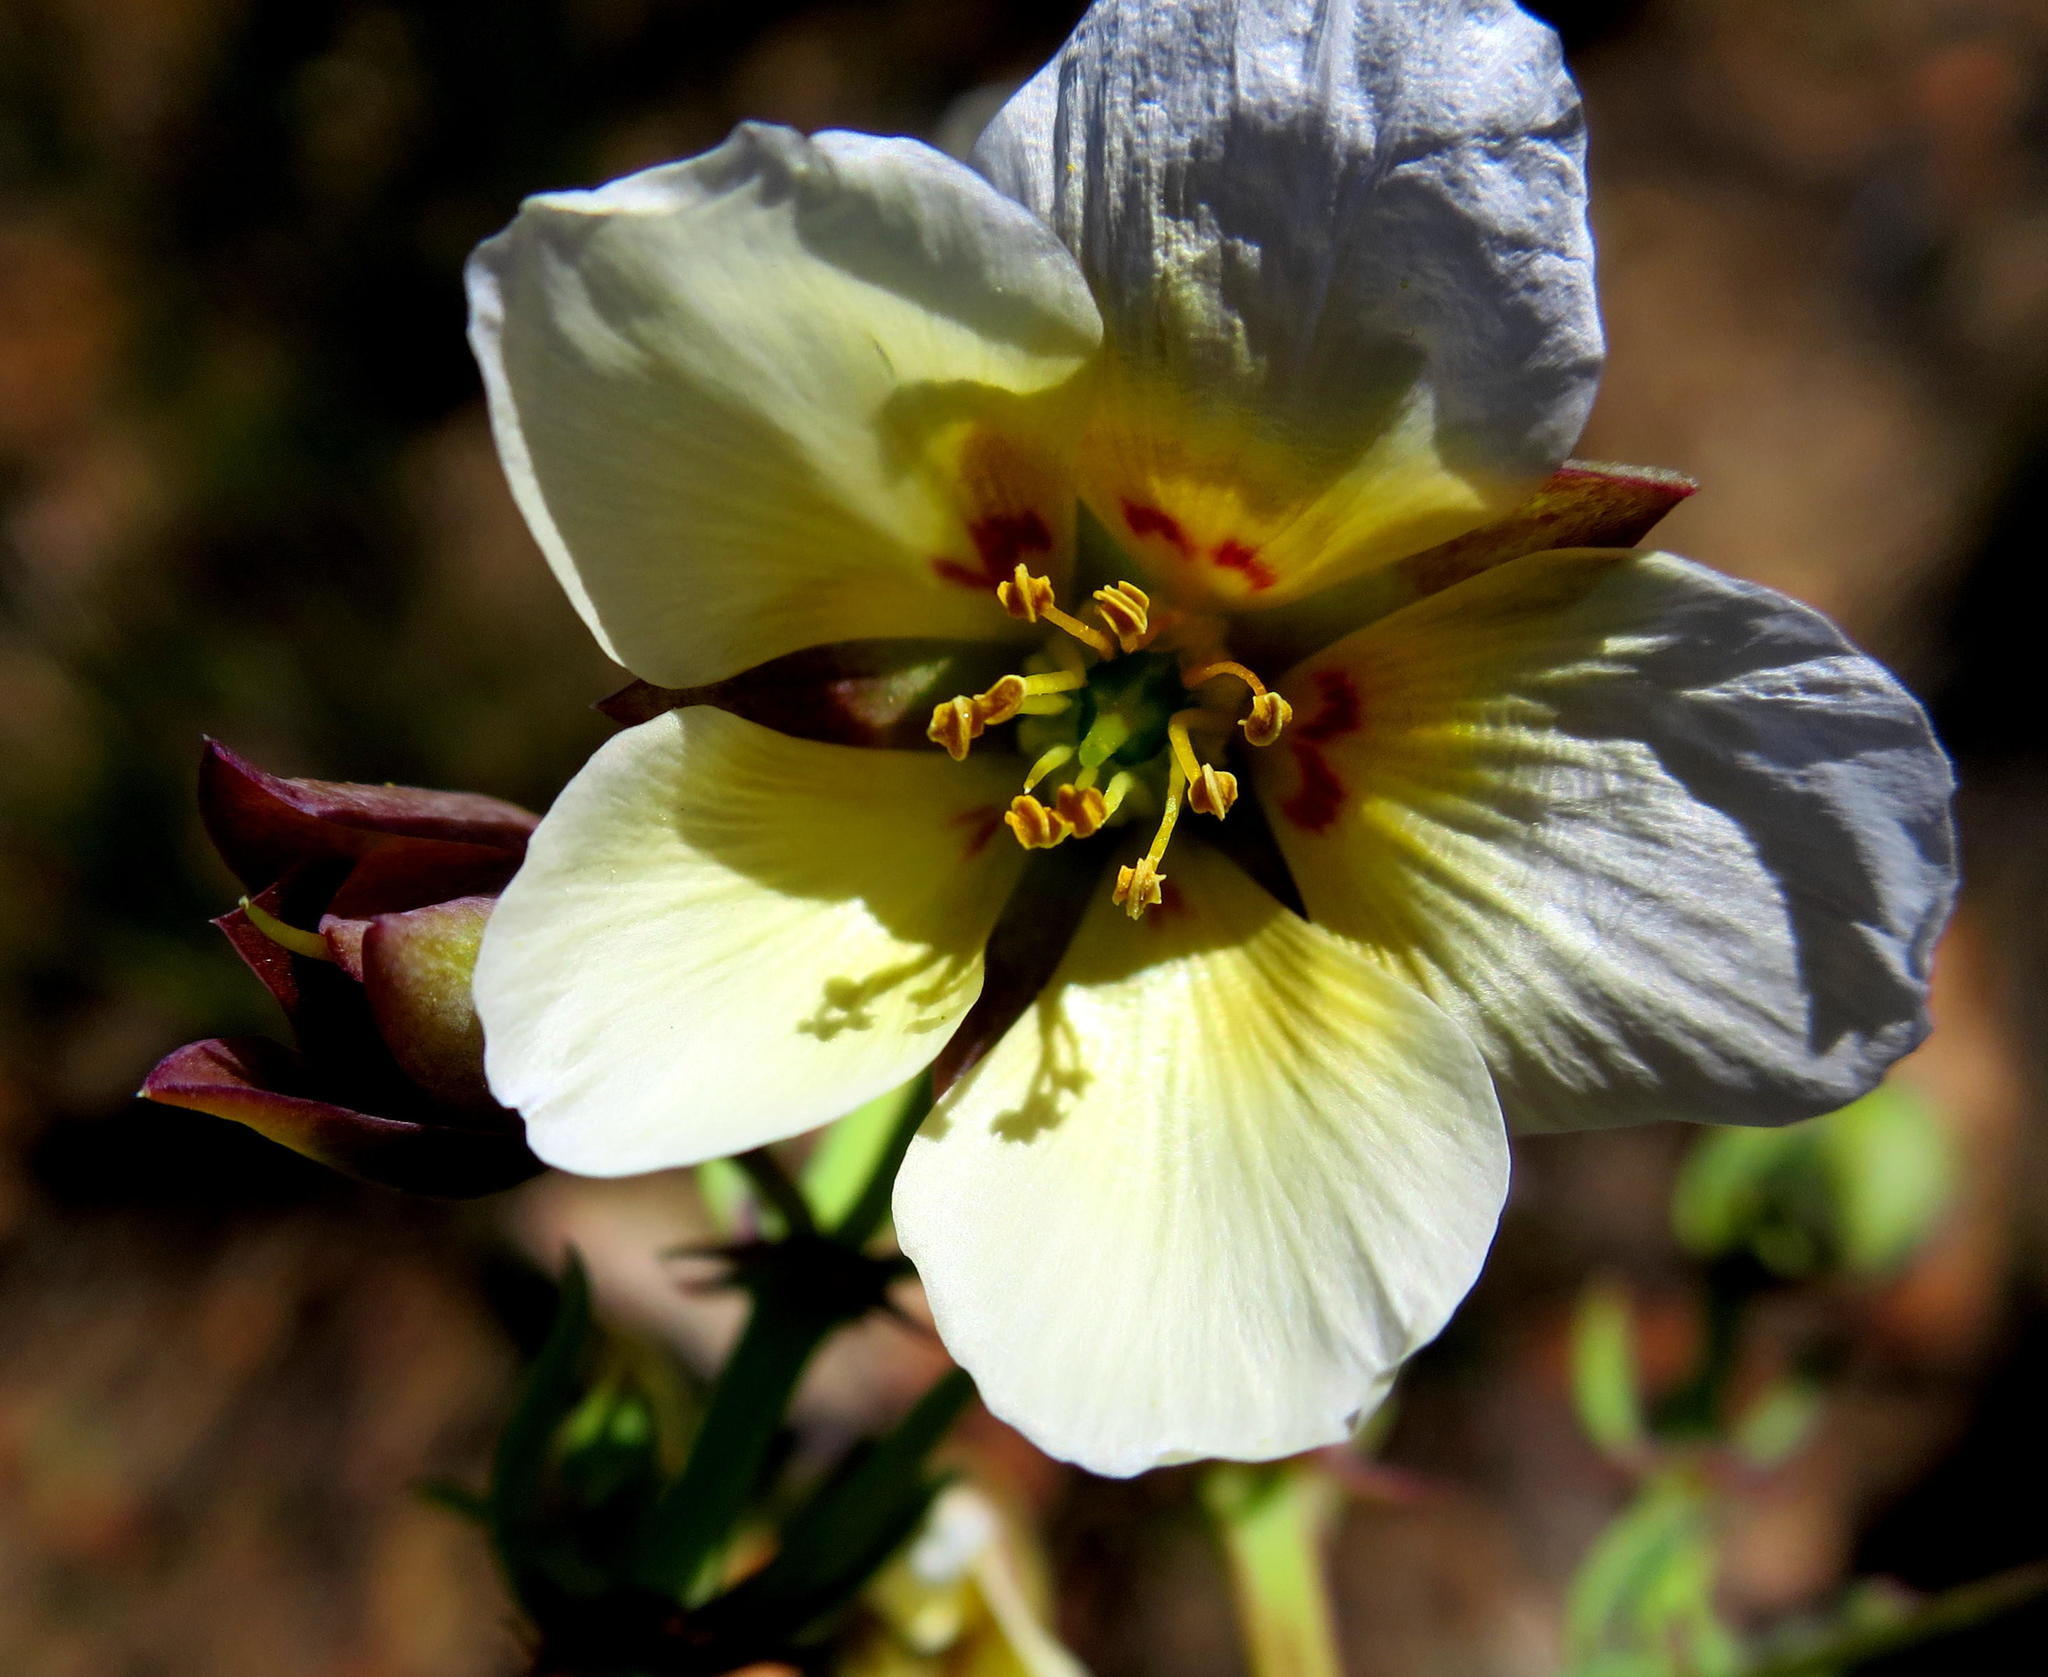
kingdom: Plantae
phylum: Tracheophyta
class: Magnoliopsida
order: Zygophyllales
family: Zygophyllaceae
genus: Roepera
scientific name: Roepera fulva
